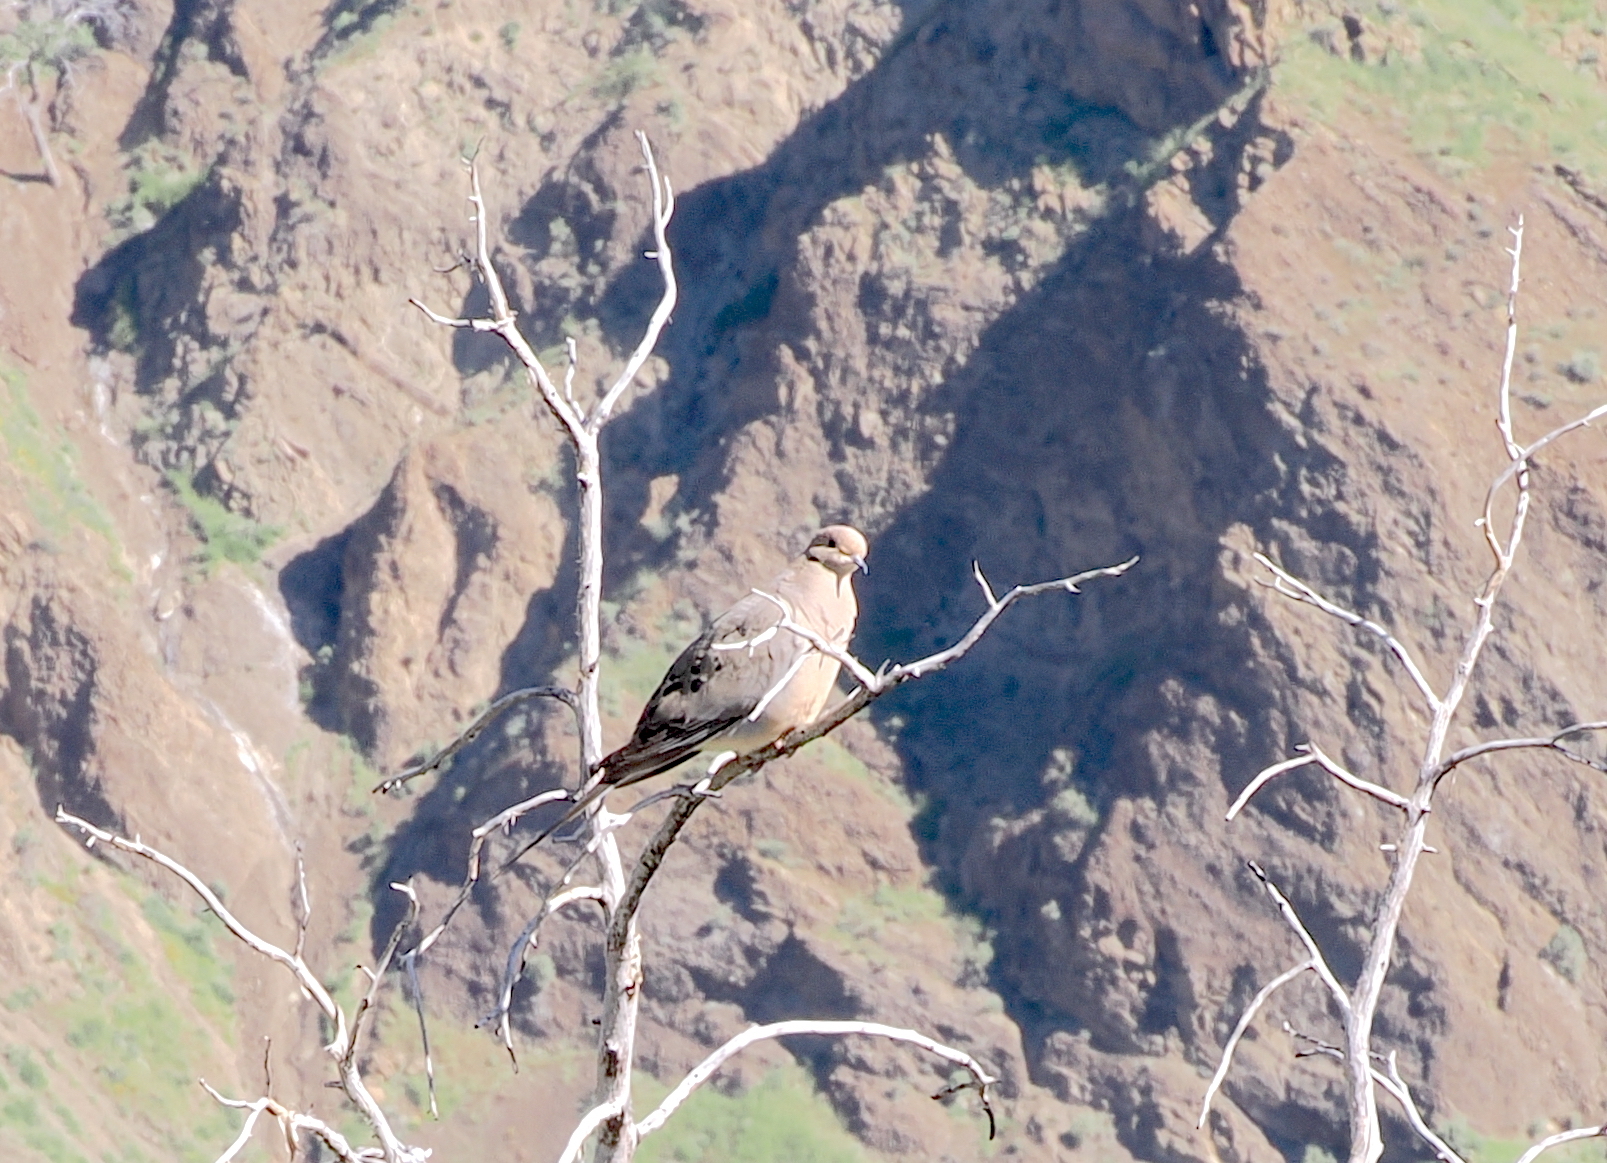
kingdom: Animalia
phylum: Chordata
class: Aves
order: Columbiformes
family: Columbidae
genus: Zenaida
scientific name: Zenaida macroura
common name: Mourning dove
